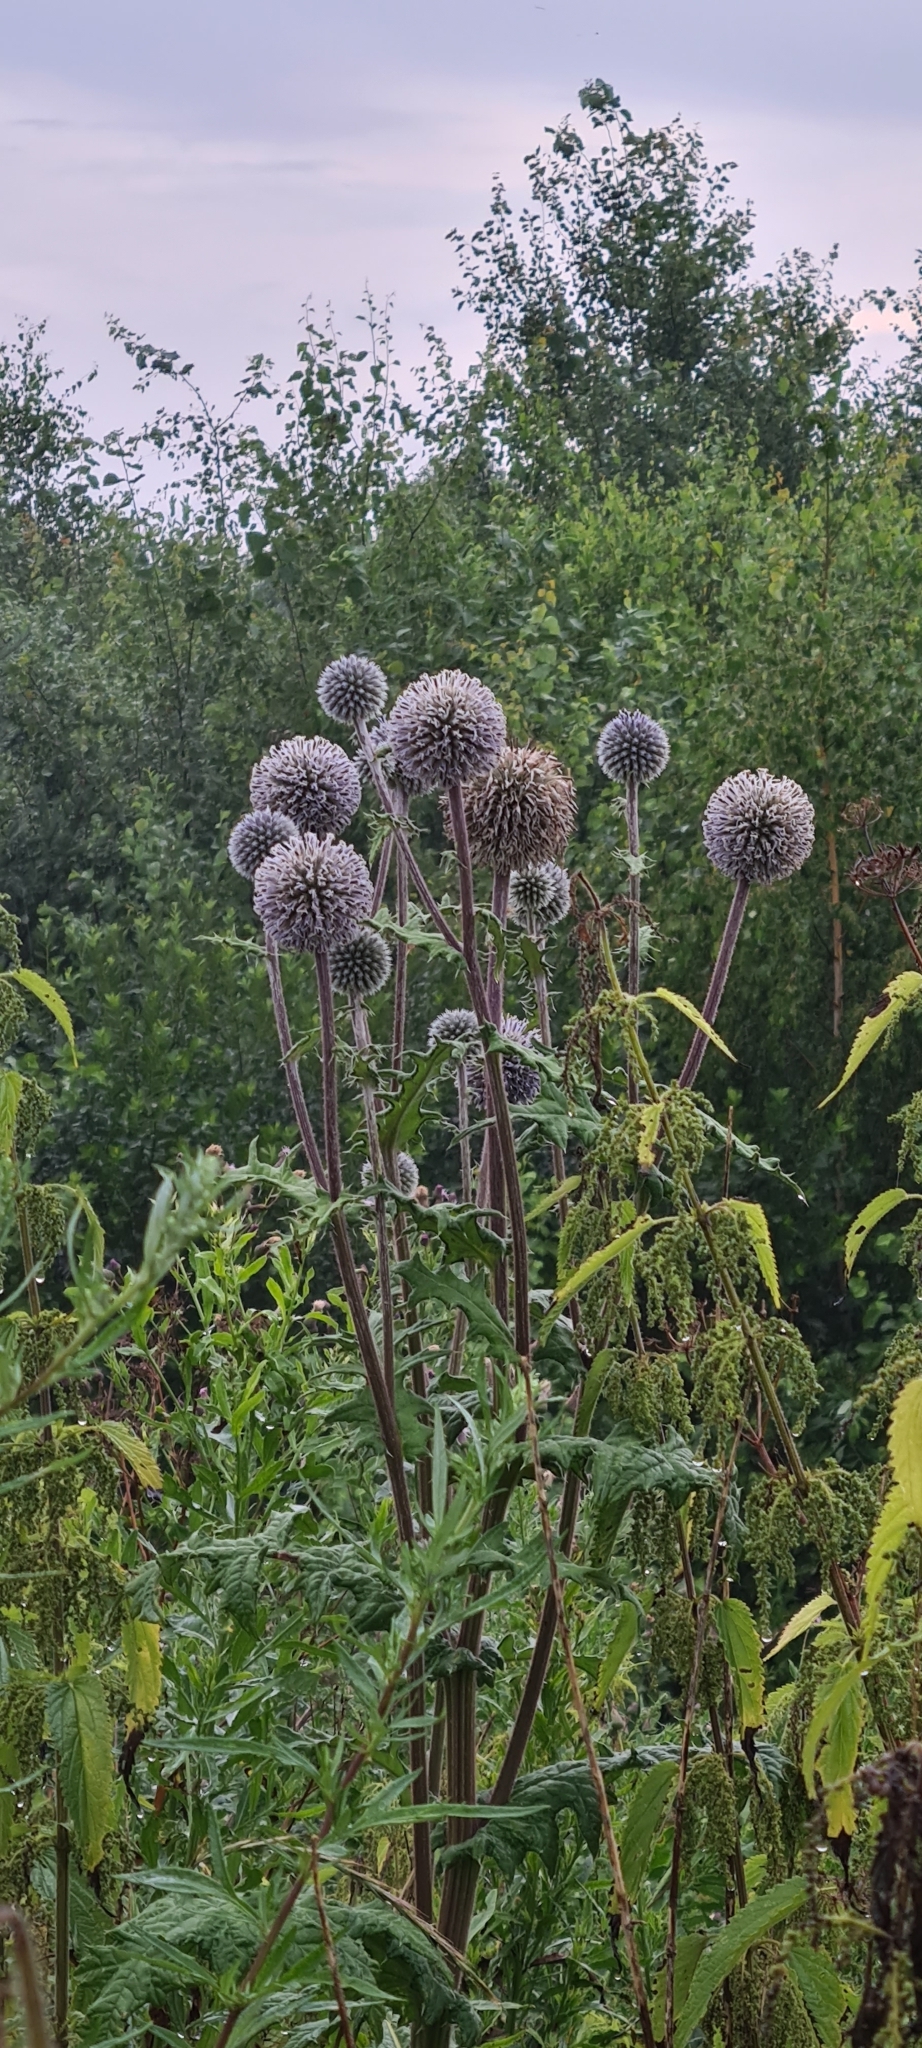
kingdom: Plantae
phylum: Tracheophyta
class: Magnoliopsida
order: Asterales
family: Asteraceae
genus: Echinops
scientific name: Echinops sphaerocephalus
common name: Glandular globe-thistle
